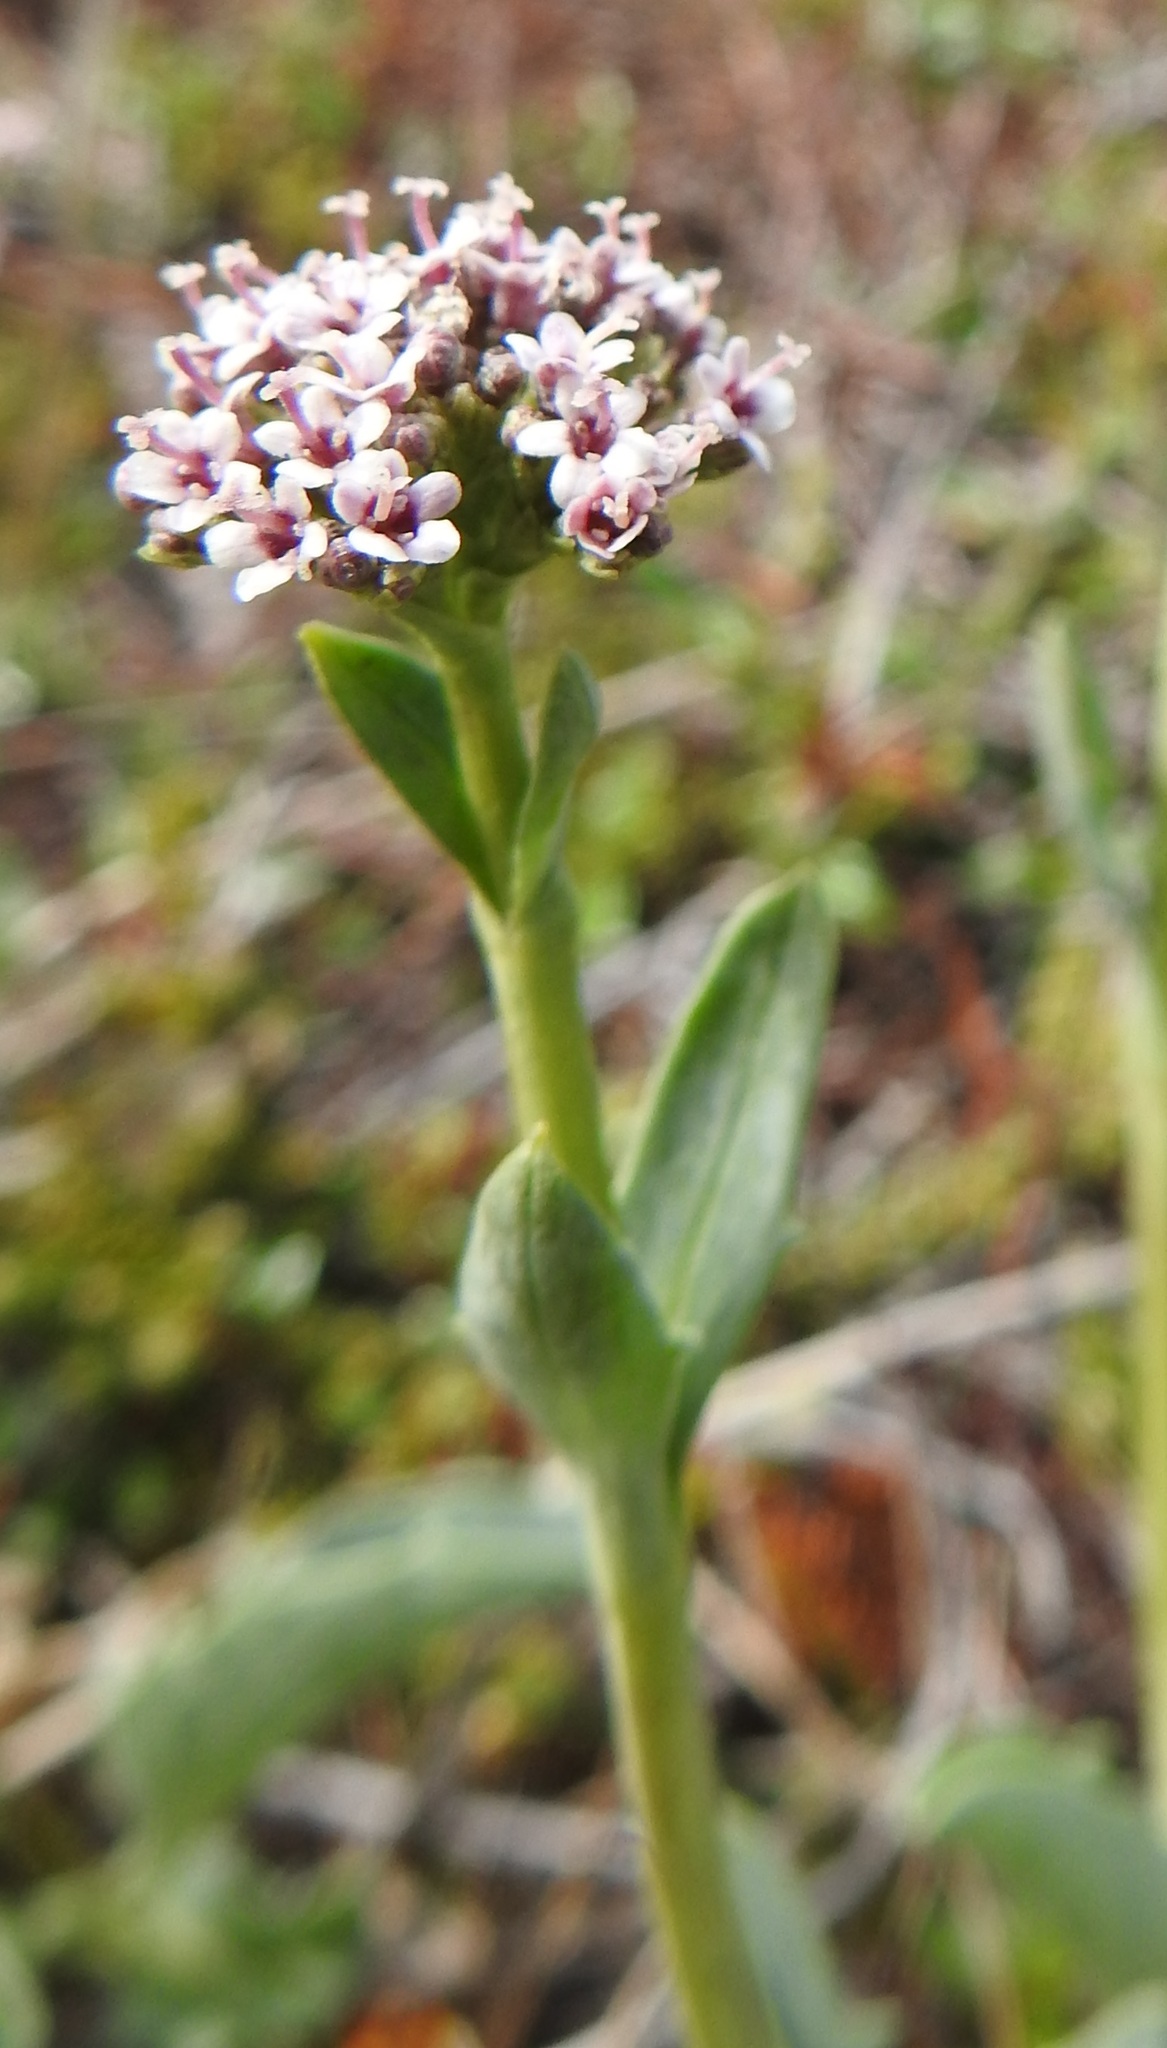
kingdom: Plantae
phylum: Tracheophyta
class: Magnoliopsida
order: Dipsacales
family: Caprifoliaceae
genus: Valeriana
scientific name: Valeriana carnosa
